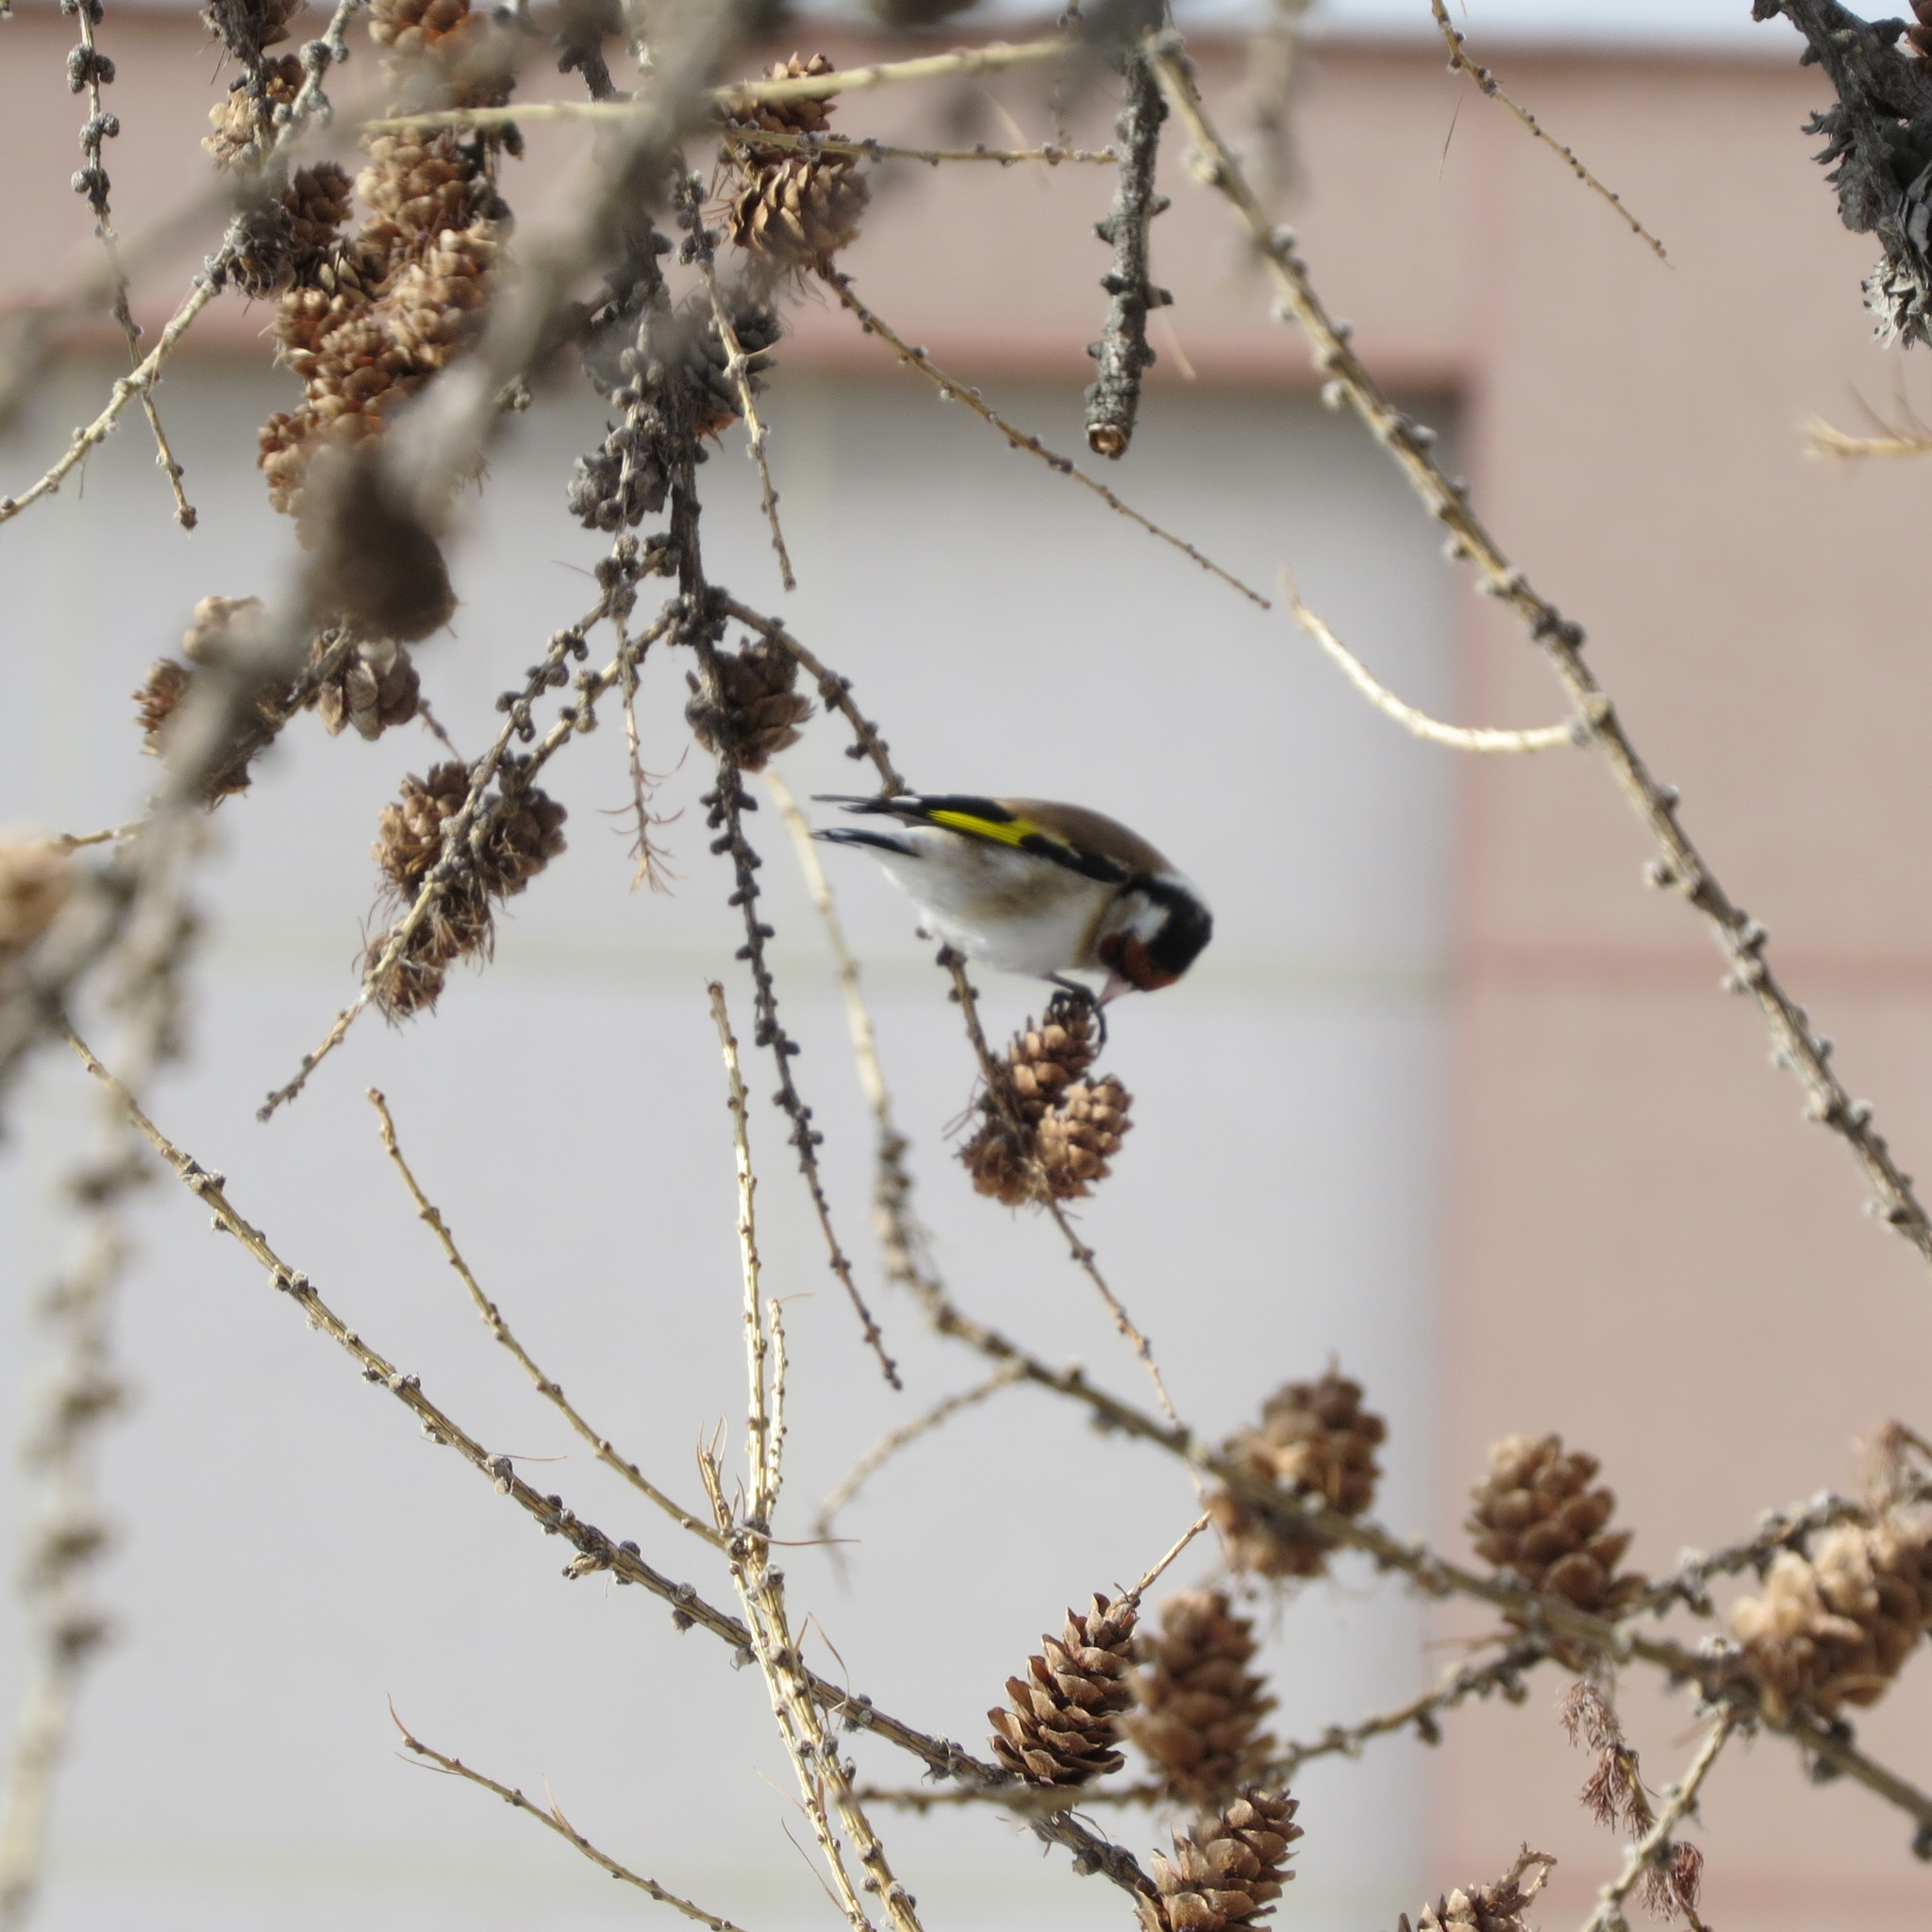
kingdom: Animalia
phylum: Chordata
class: Aves
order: Passeriformes
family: Fringillidae
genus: Carduelis
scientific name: Carduelis carduelis
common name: European goldfinch
